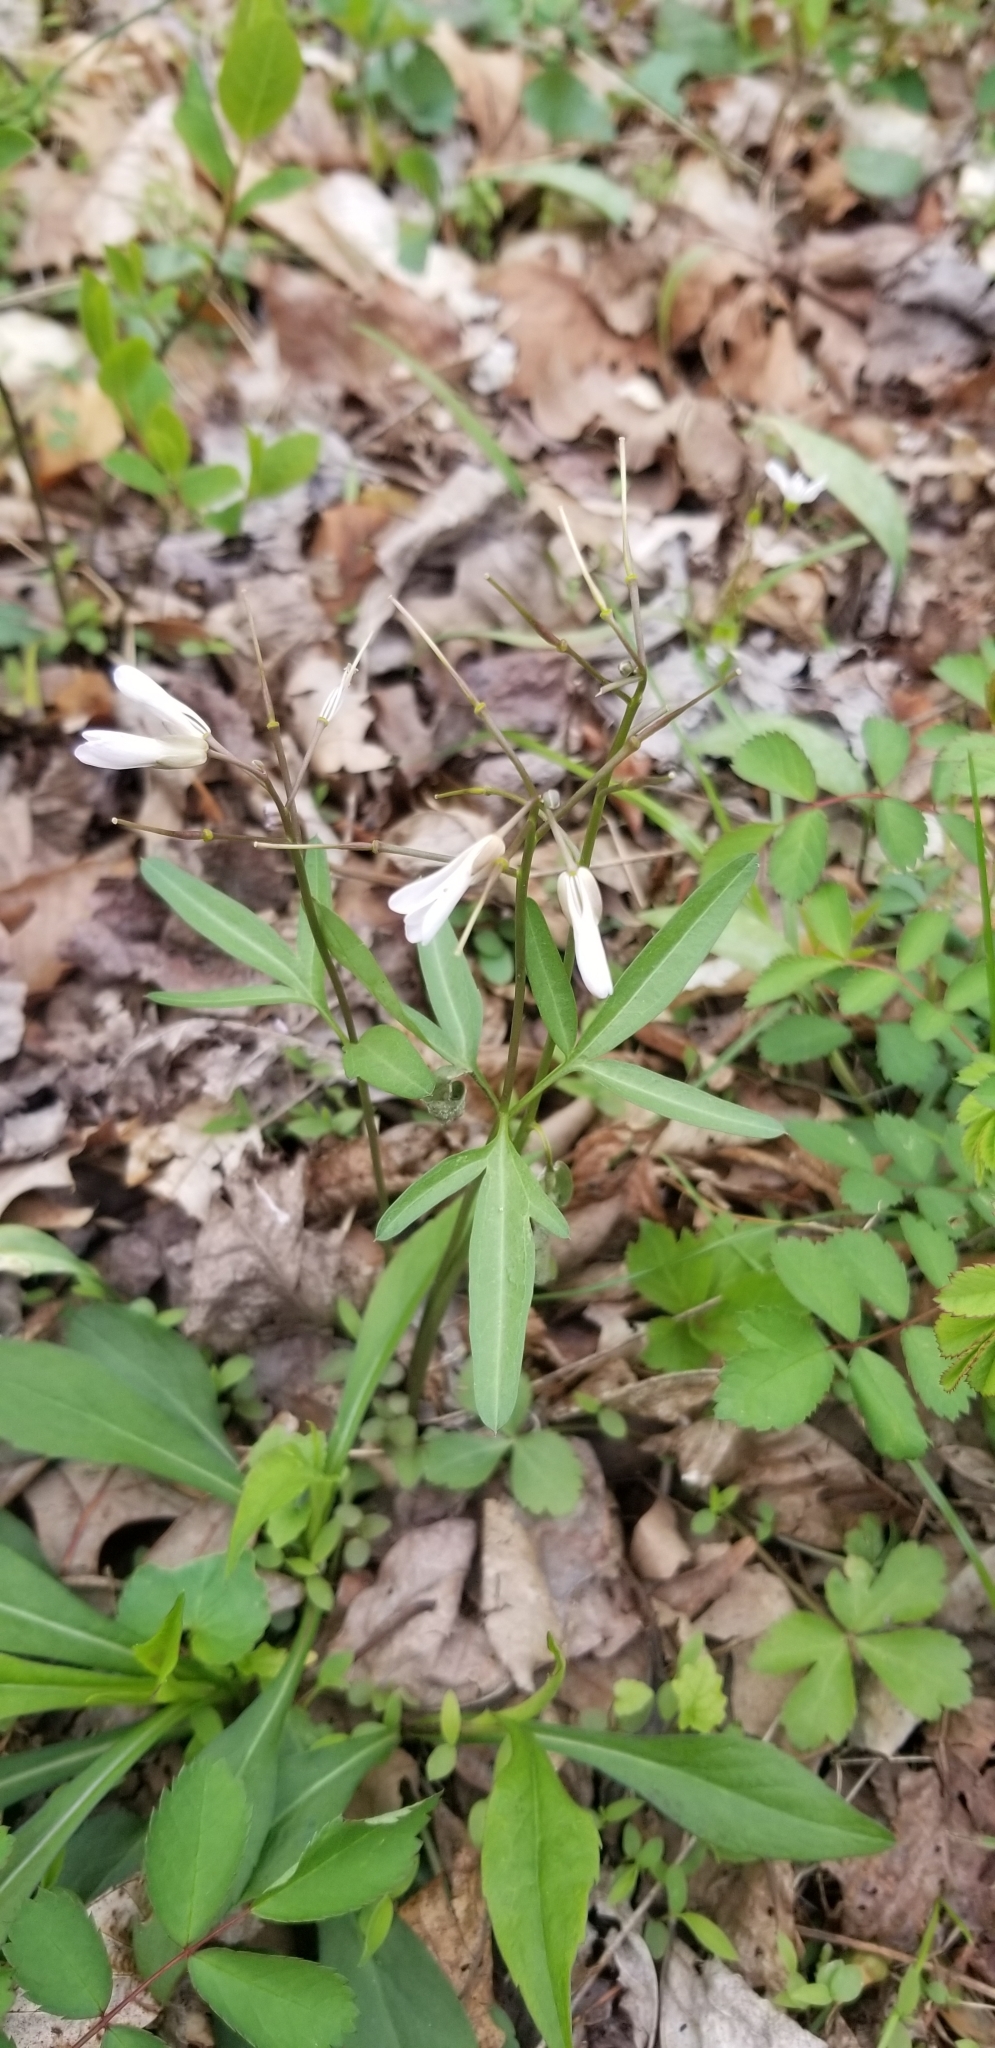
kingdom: Plantae
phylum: Tracheophyta
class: Magnoliopsida
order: Brassicales
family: Brassicaceae
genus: Cardamine
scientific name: Cardamine angustata
